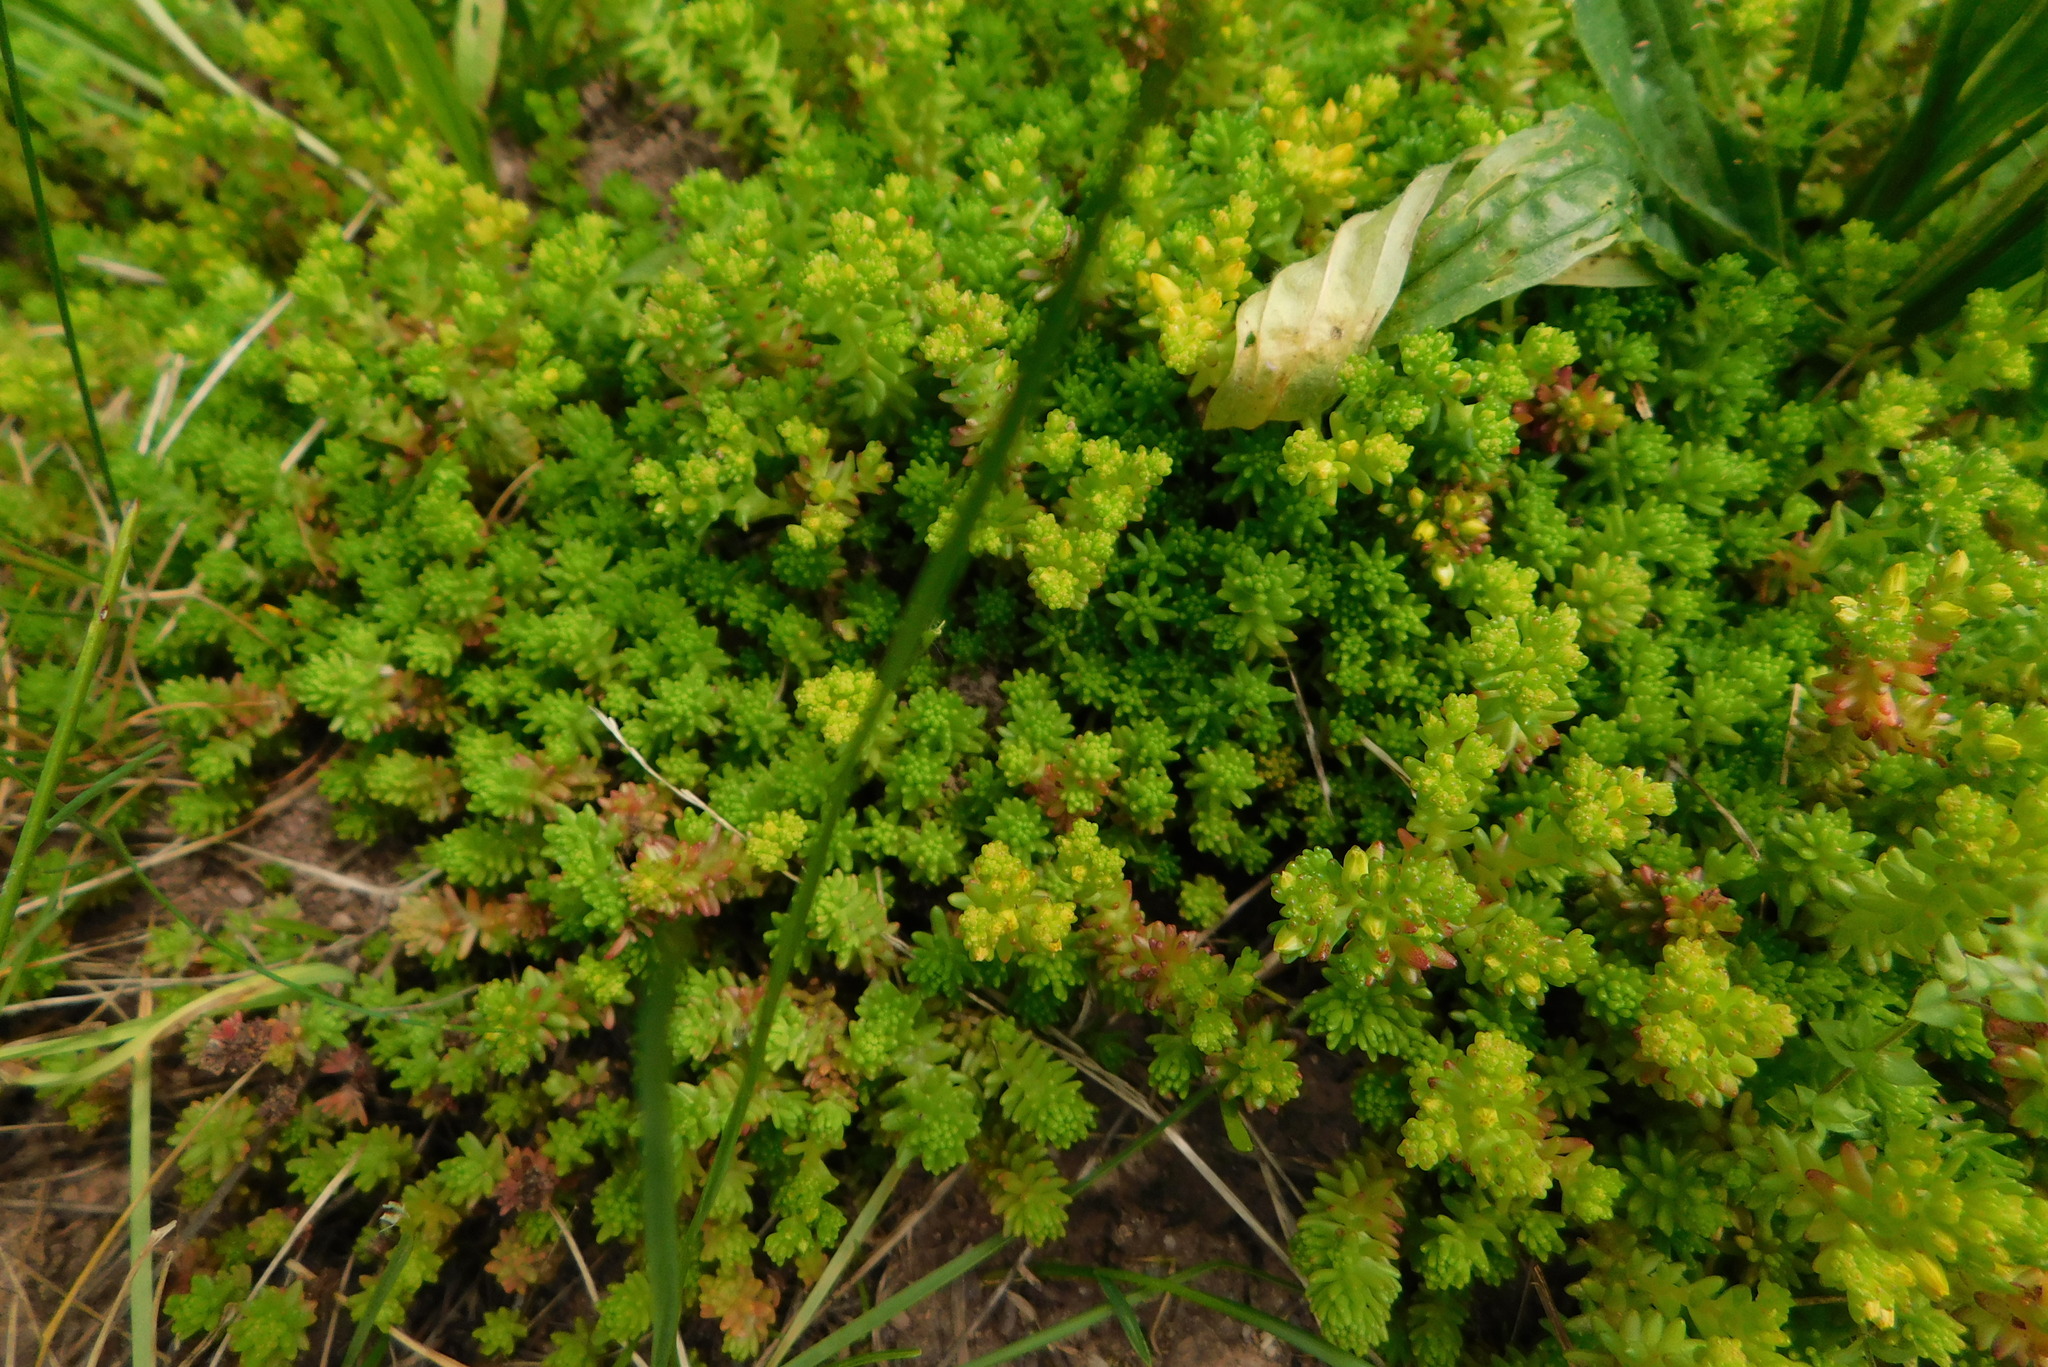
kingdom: Plantae
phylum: Tracheophyta
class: Magnoliopsida
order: Saxifragales
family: Crassulaceae
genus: Sedum
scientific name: Sedum sexangulare
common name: Tasteless stonecrop
